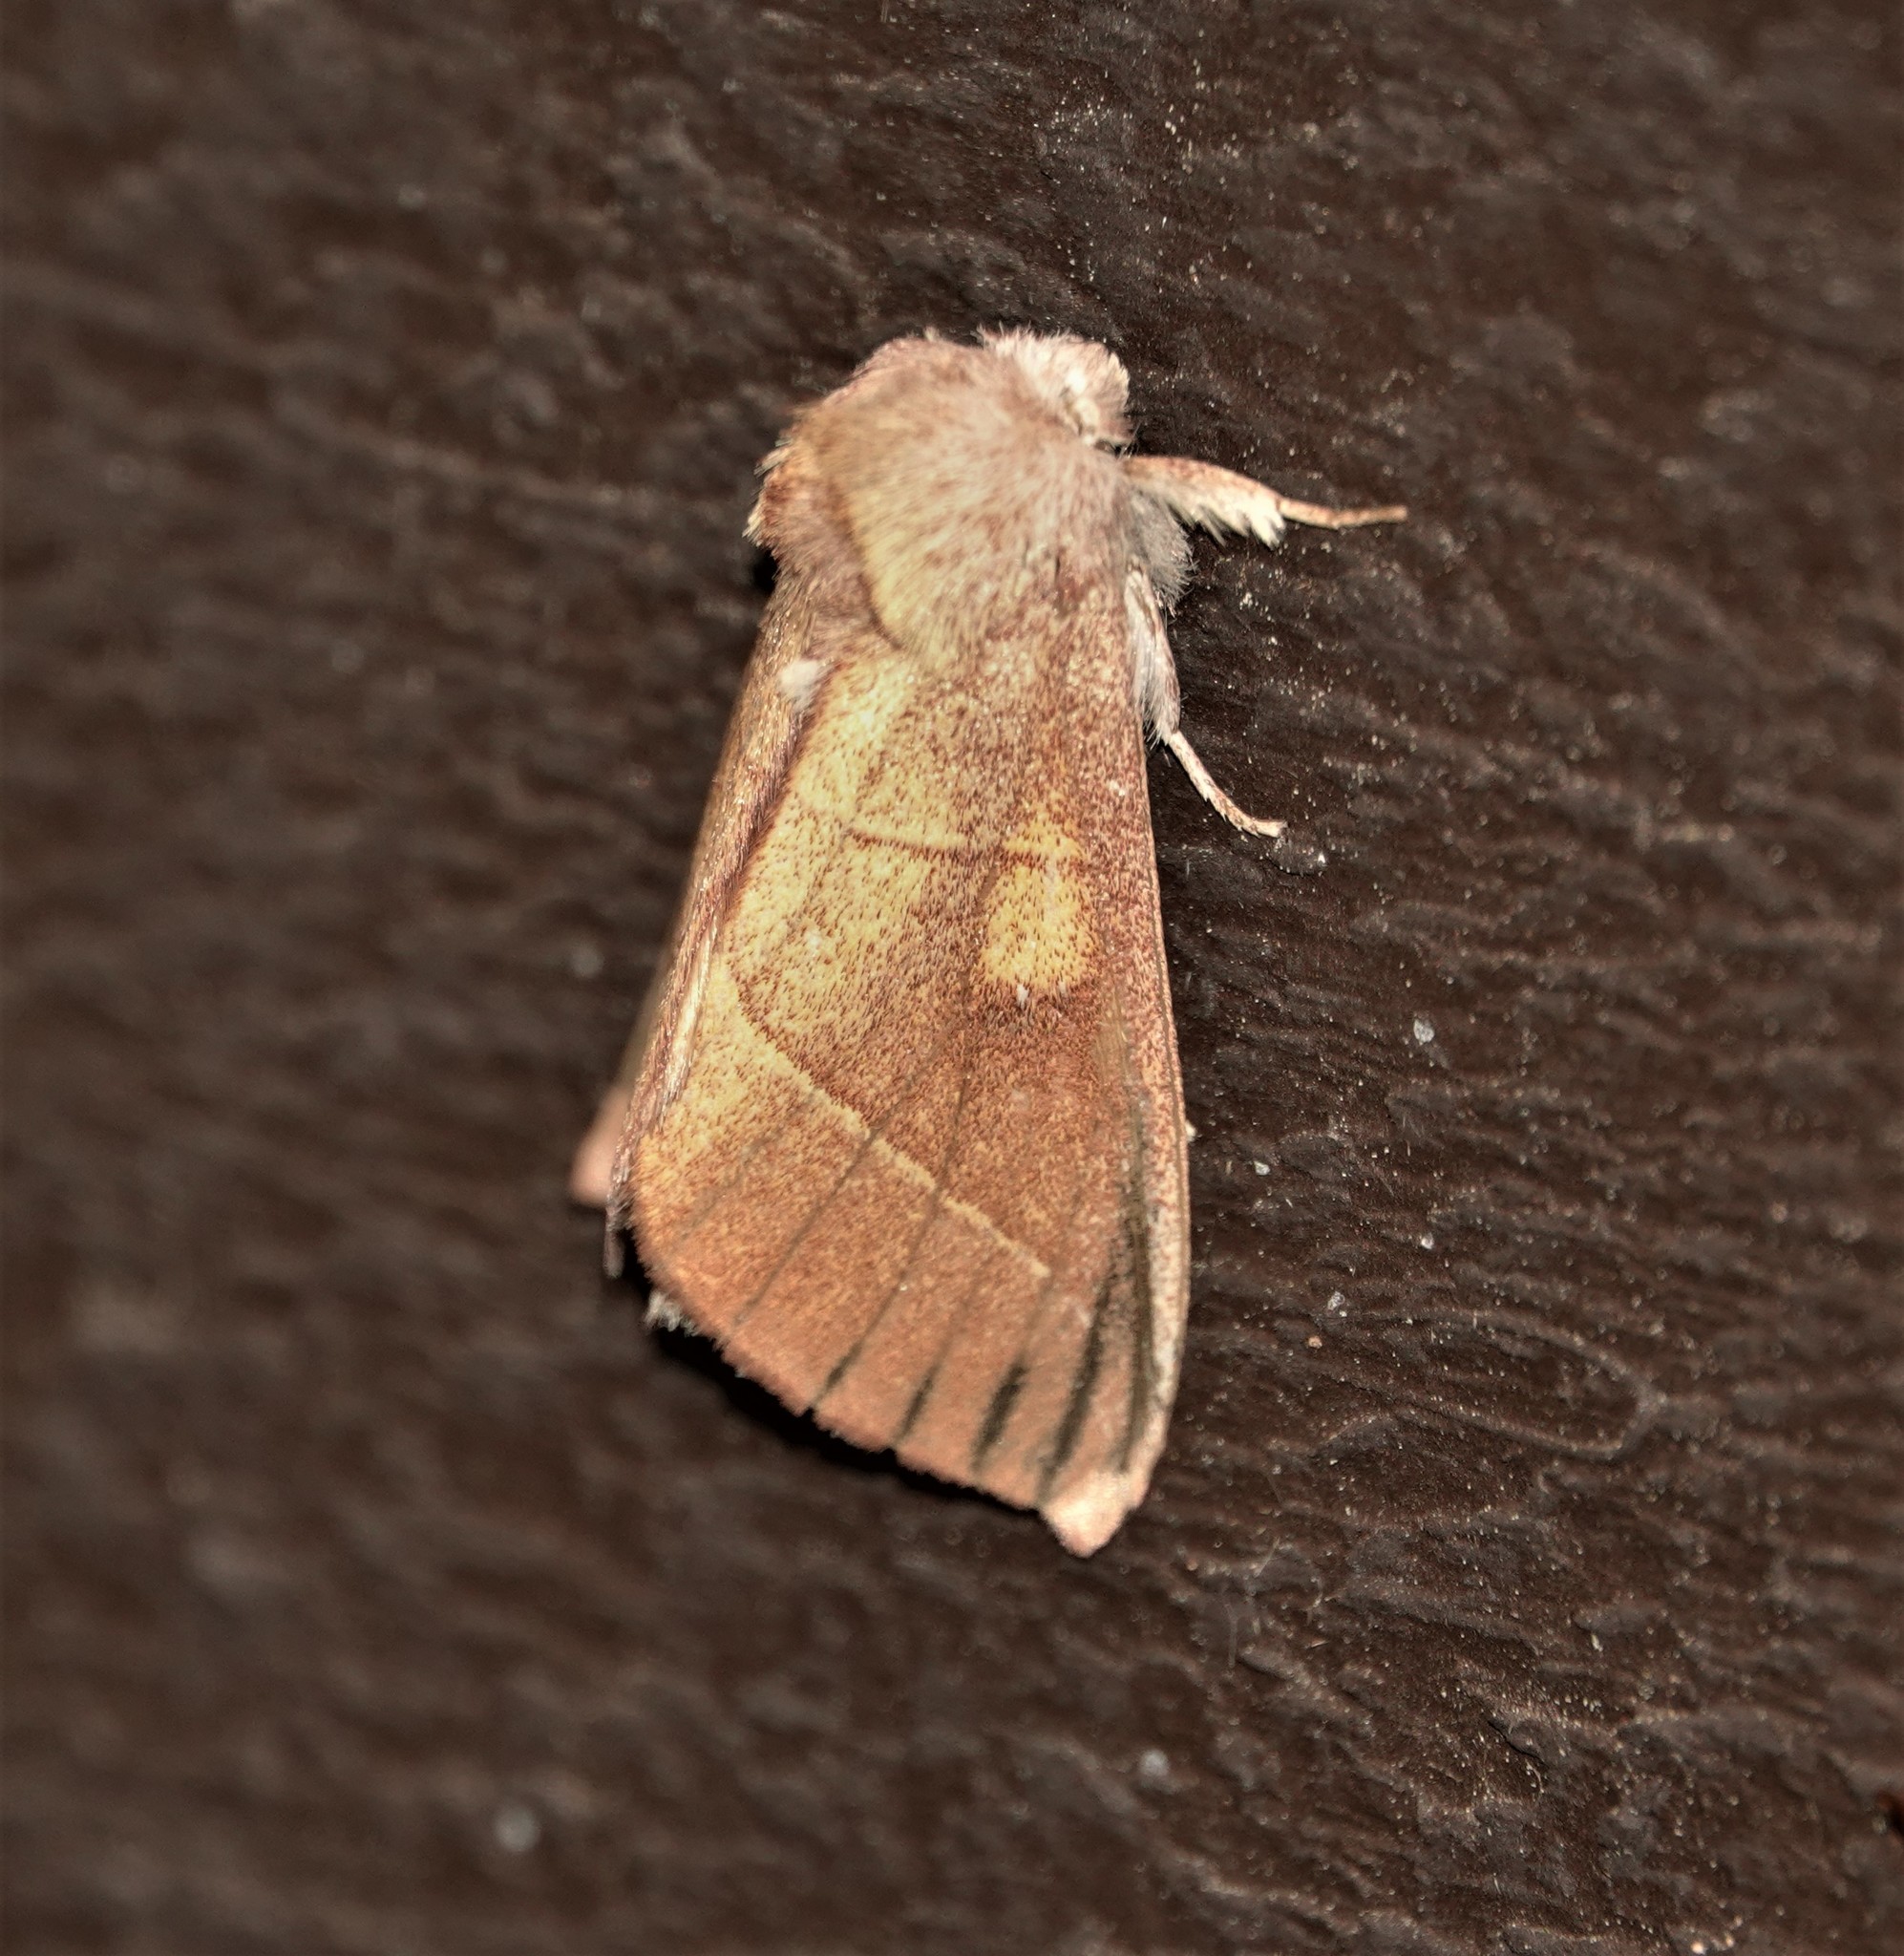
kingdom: Animalia
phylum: Arthropoda
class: Insecta
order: Lepidoptera
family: Notodontidae
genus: Nadata
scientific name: Nadata gibbosa
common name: White-dotted prominent
